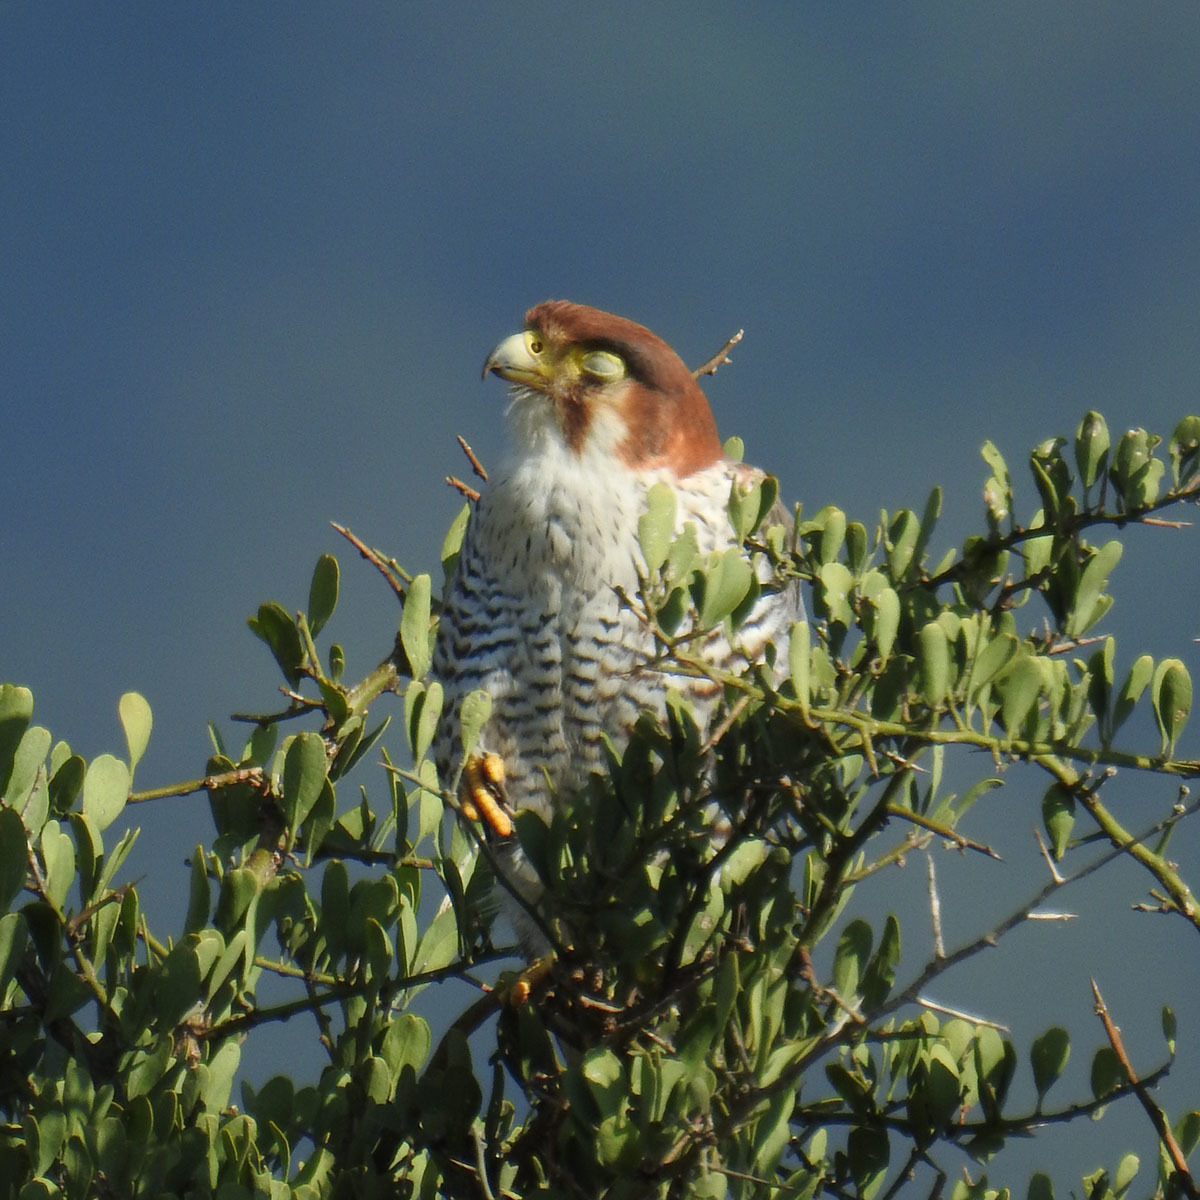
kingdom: Animalia
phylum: Chordata
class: Aves
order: Falconiformes
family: Falconidae
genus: Falco
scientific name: Falco chicquera
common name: Red-necked falcon
